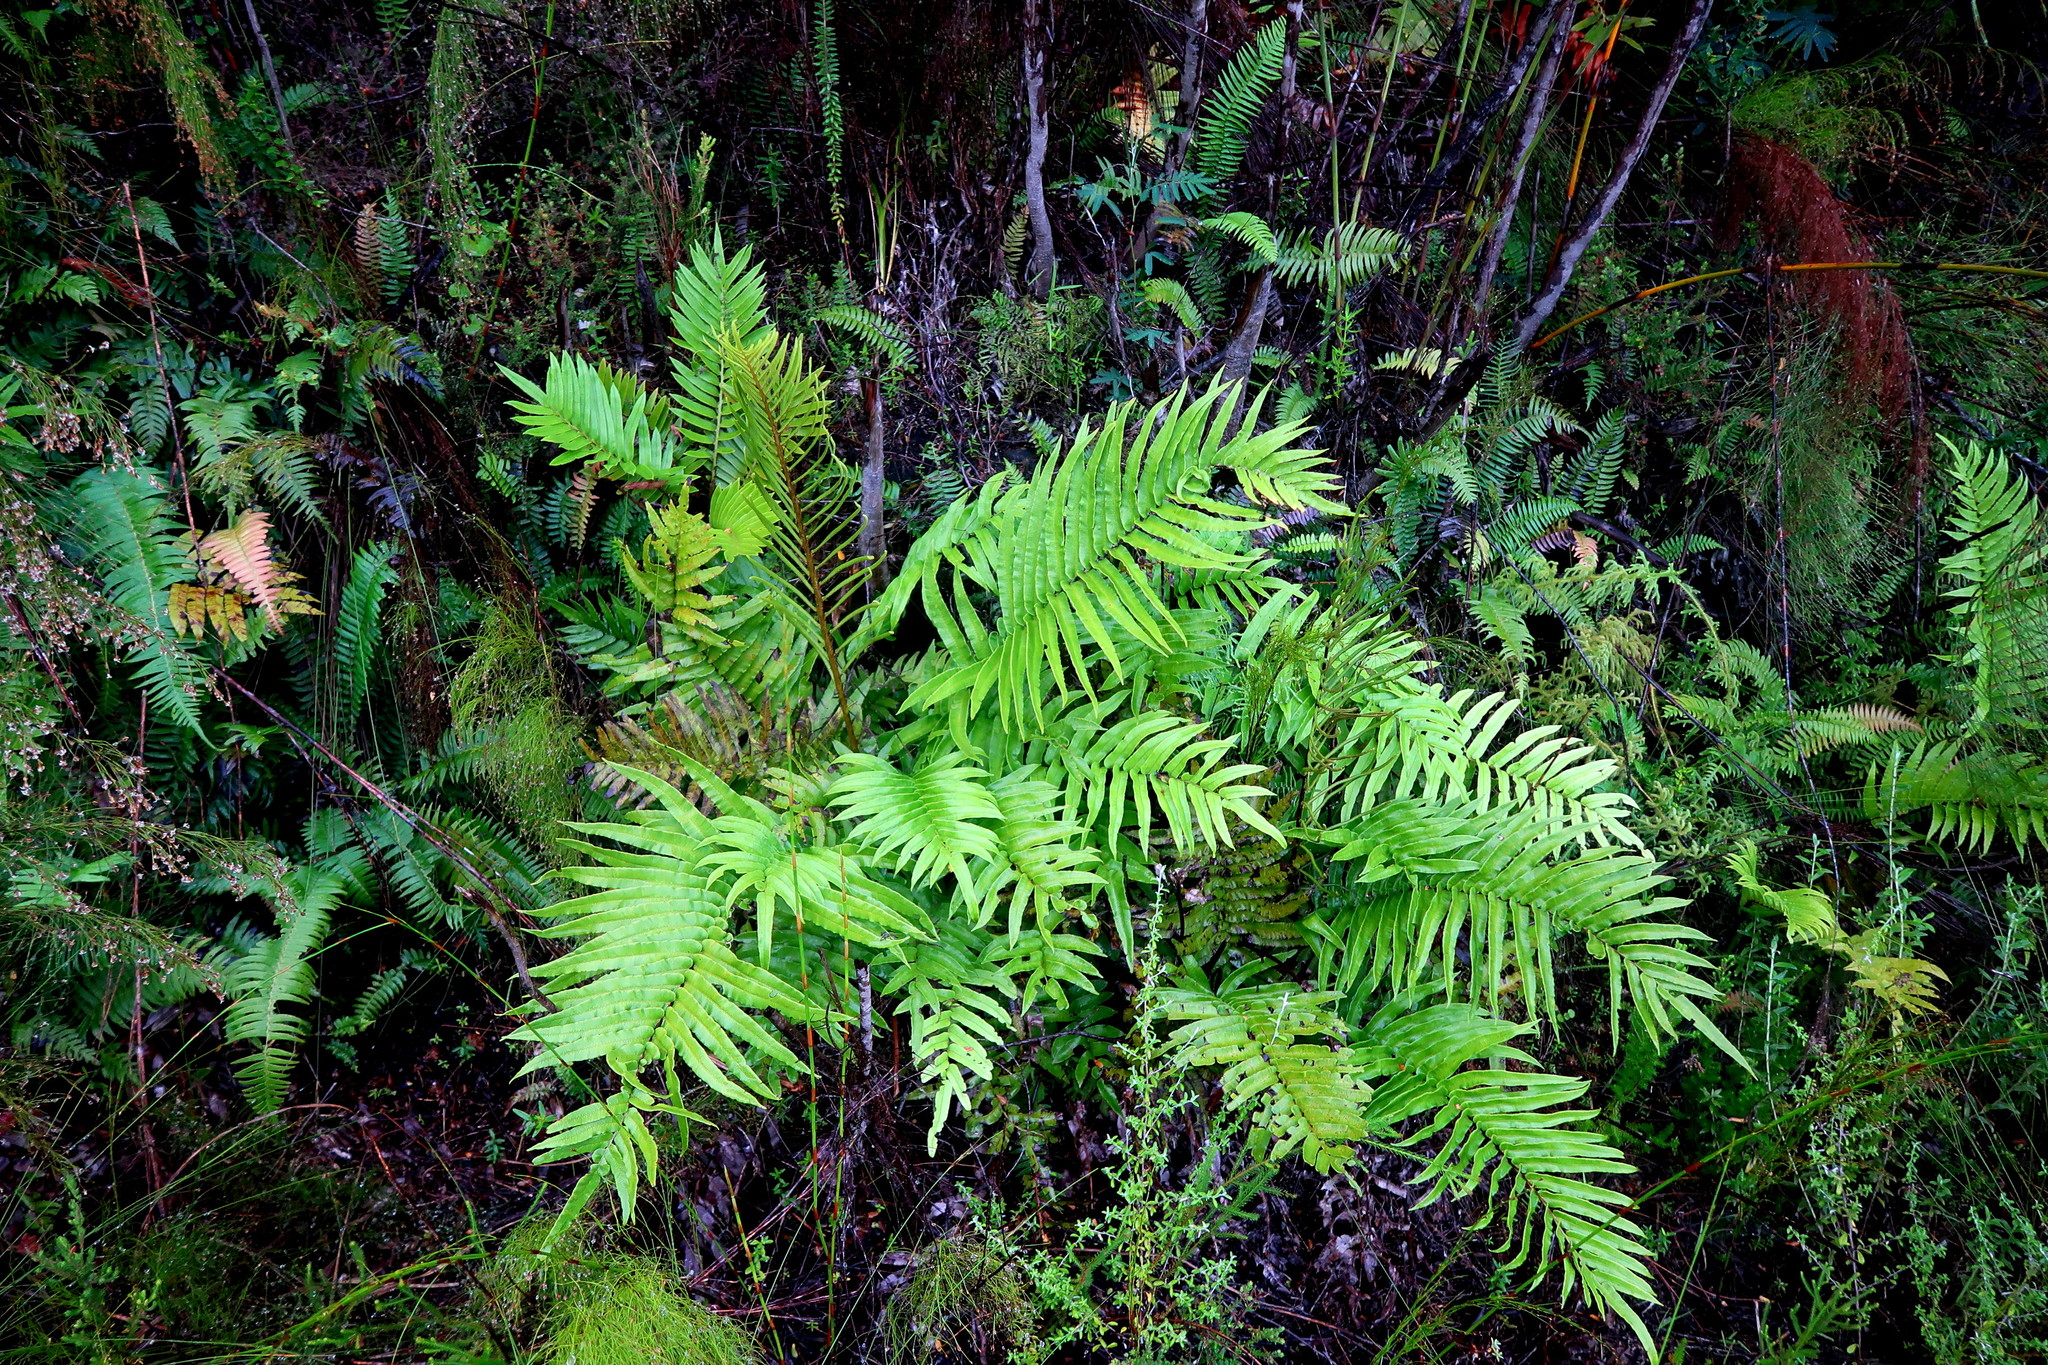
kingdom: Plantae
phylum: Tracheophyta
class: Polypodiopsida
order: Polypodiales
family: Blechnaceae
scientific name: Blechnaceae
